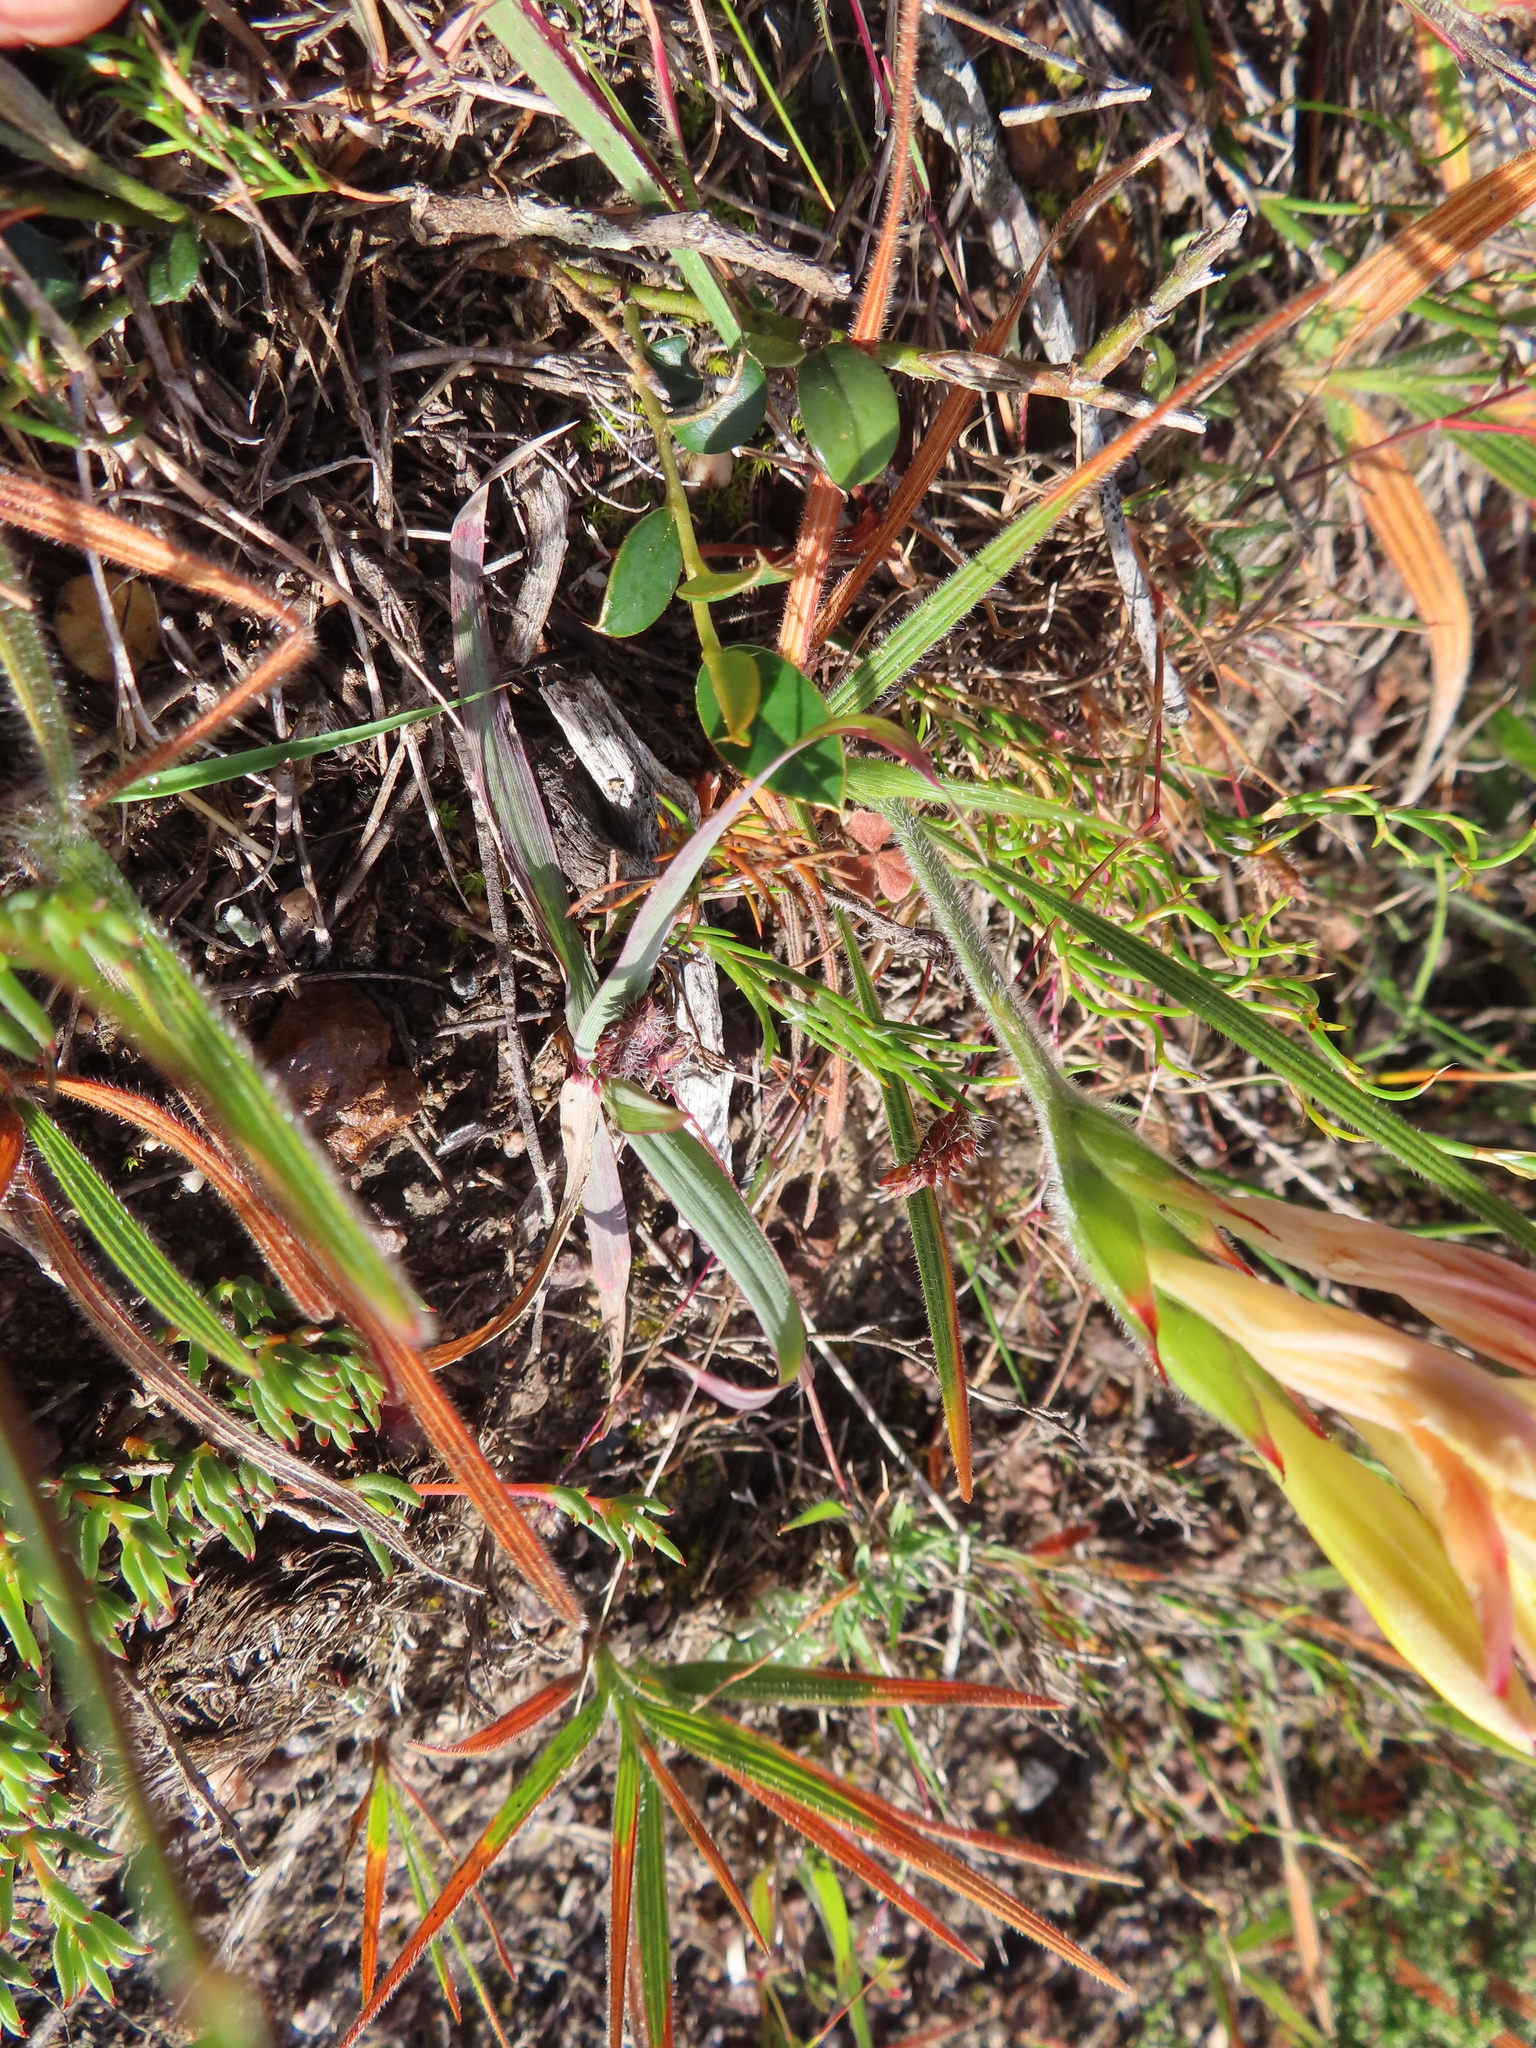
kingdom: Plantae
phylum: Tracheophyta
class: Liliopsida
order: Asparagales
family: Iridaceae
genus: Babiana
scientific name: Babiana patula
